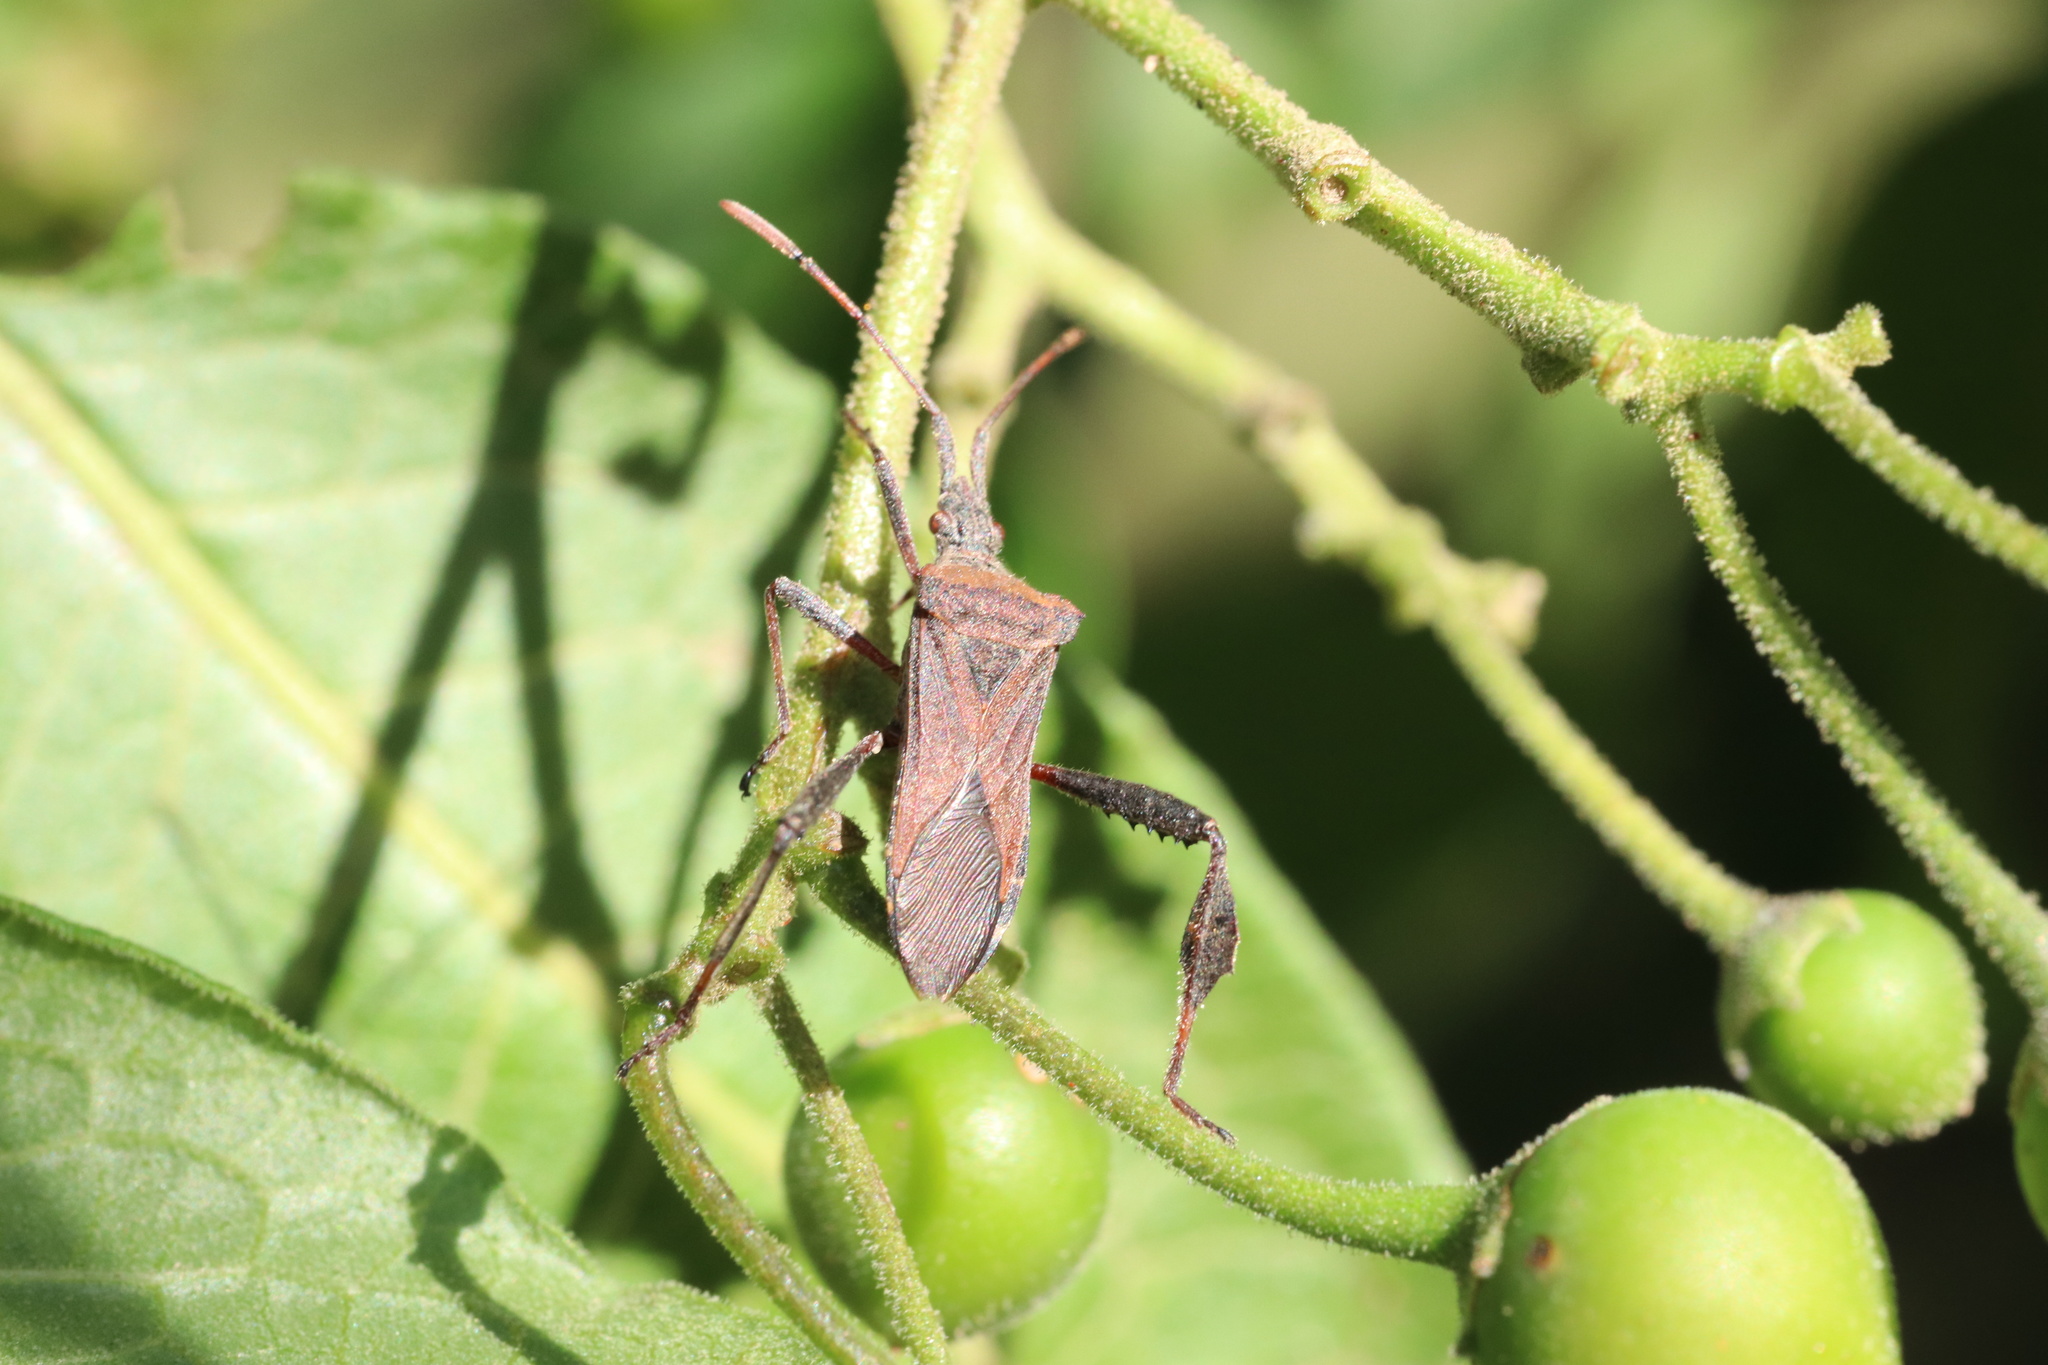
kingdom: Animalia
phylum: Arthropoda
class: Insecta
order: Hemiptera
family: Coreidae
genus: Leptoglossus
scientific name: Leptoglossus chilensis
